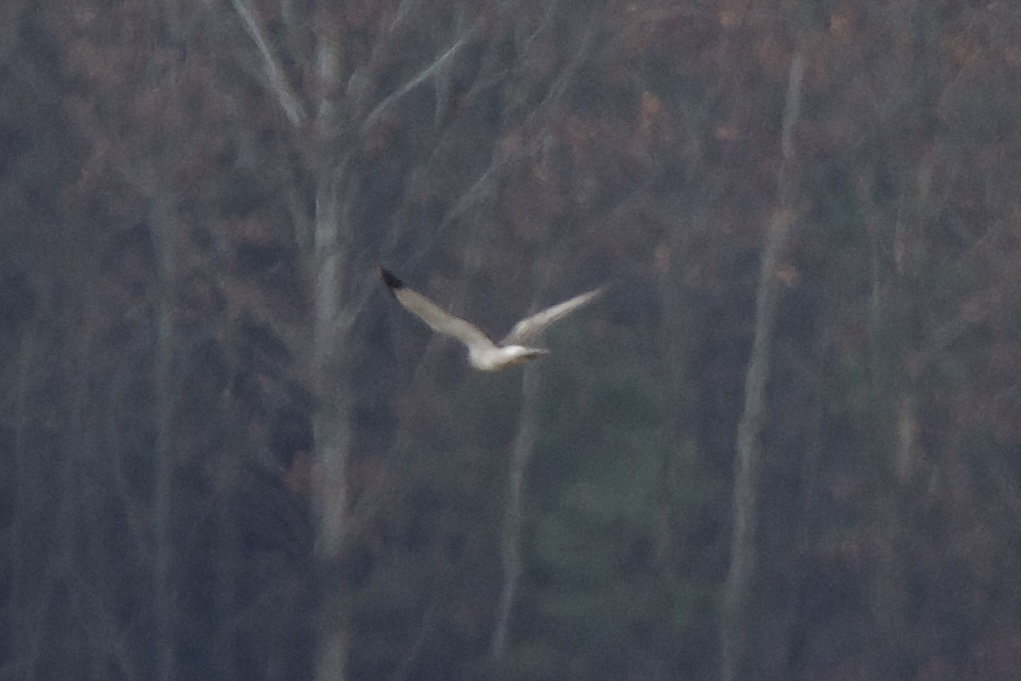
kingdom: Animalia
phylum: Chordata
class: Aves
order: Accipitriformes
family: Accipitridae
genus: Circus
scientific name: Circus cyaneus
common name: Hen harrier
